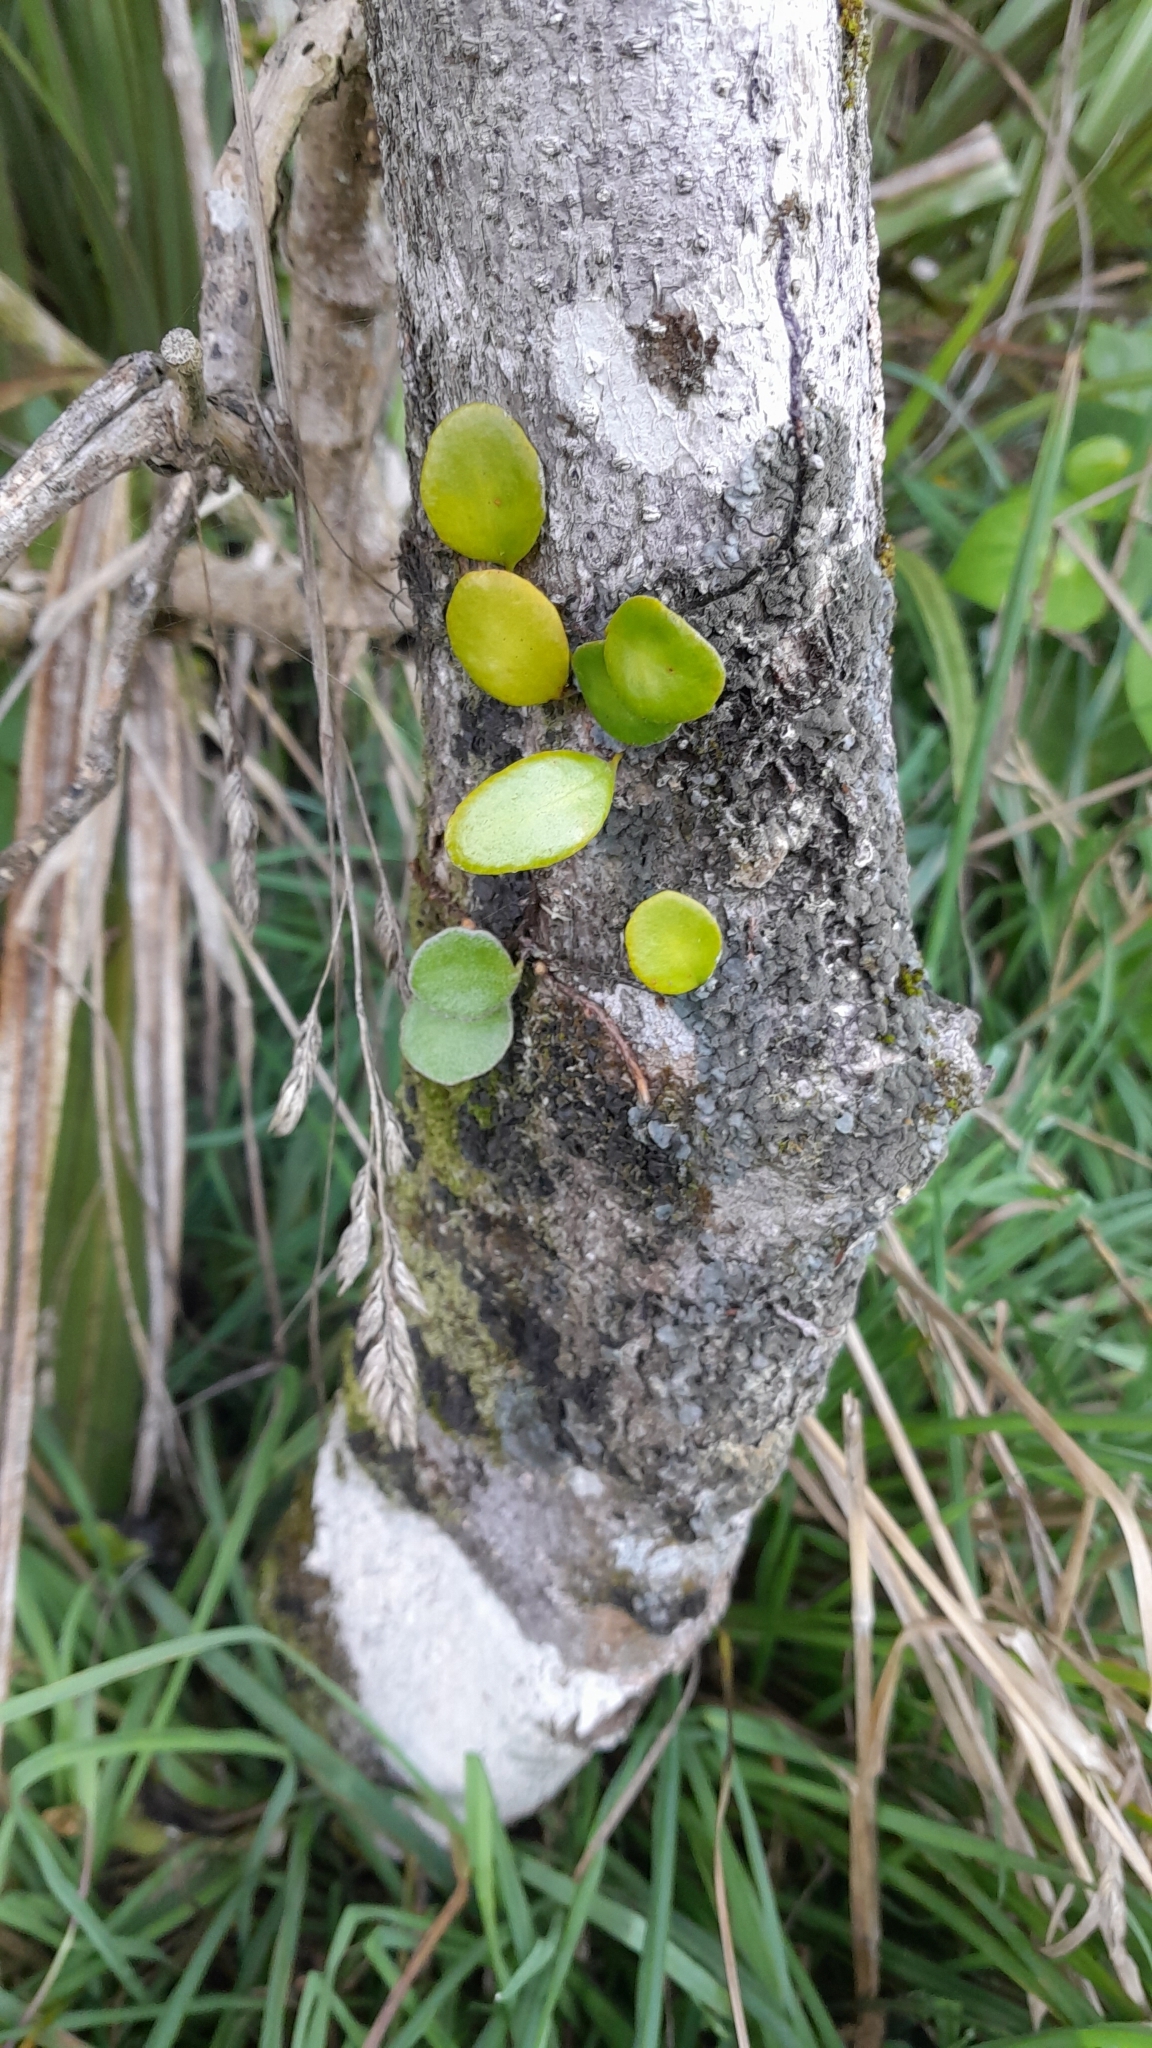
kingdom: Plantae
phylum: Tracheophyta
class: Polypodiopsida
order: Polypodiales
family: Polypodiaceae
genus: Pyrrosia
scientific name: Pyrrosia eleagnifolia
